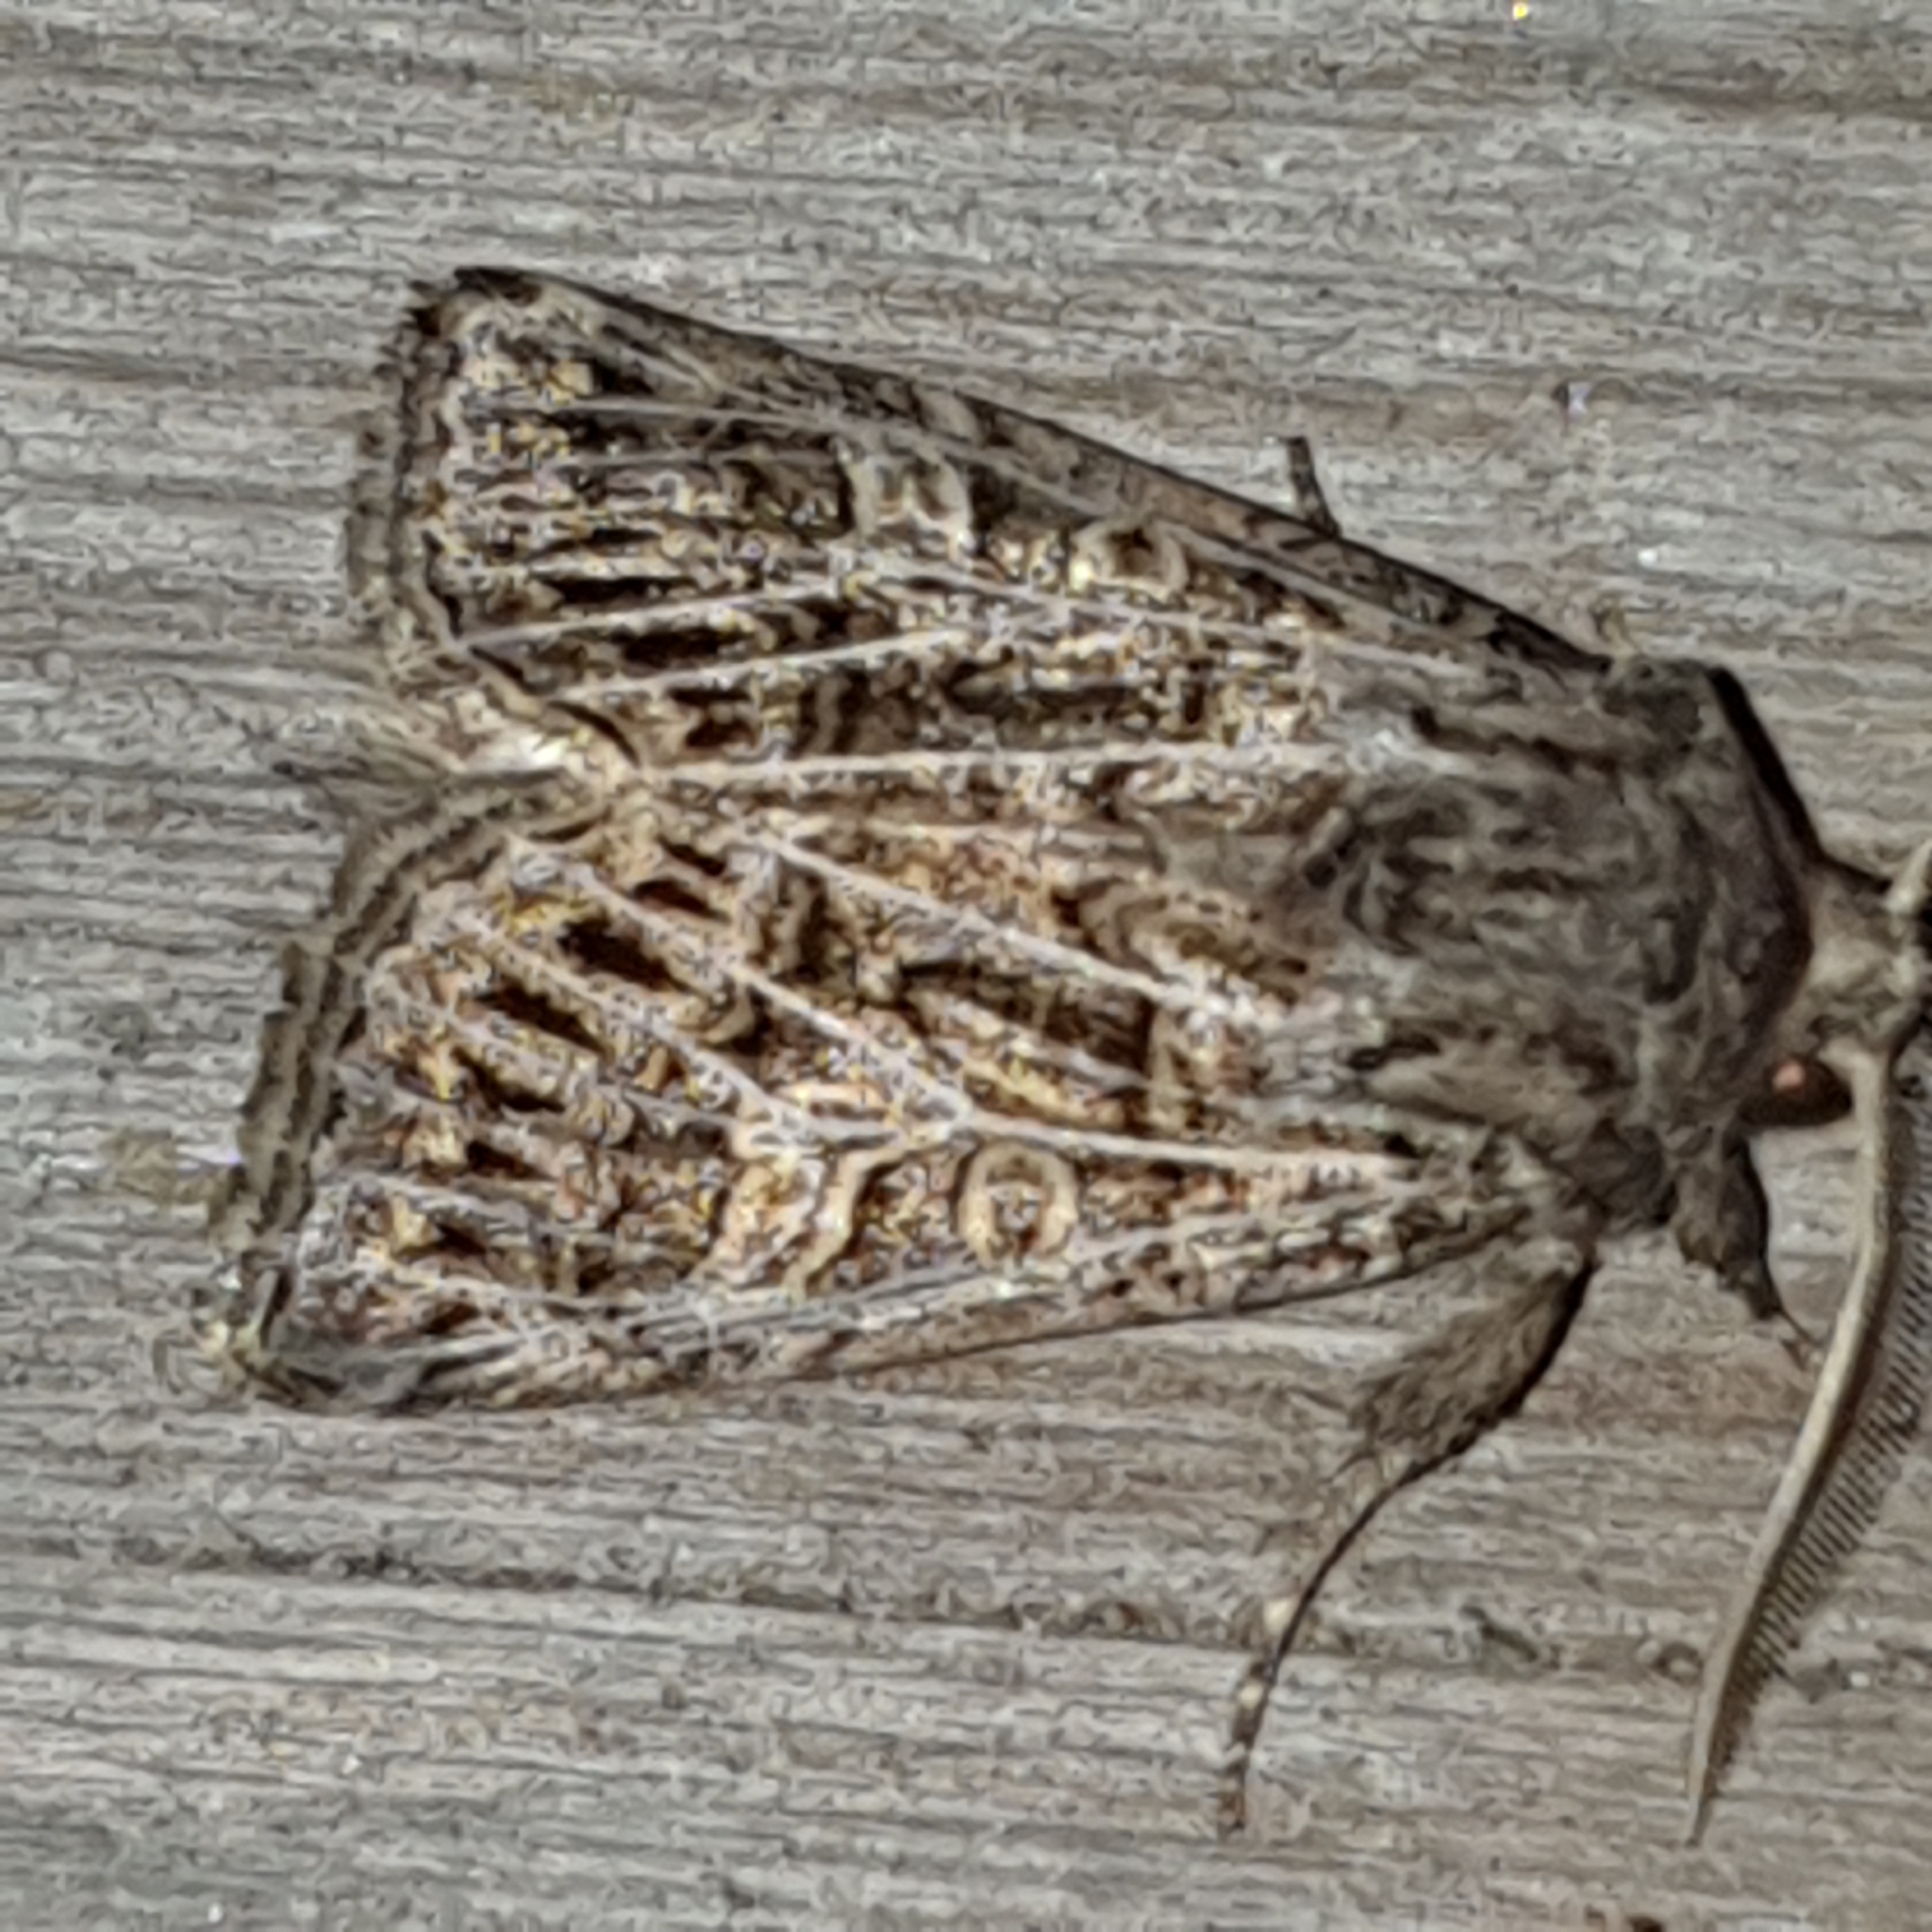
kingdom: Animalia
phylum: Arthropoda
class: Insecta
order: Lepidoptera
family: Noctuidae
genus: Tholera
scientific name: Tholera decimalis
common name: Feathered gothic
